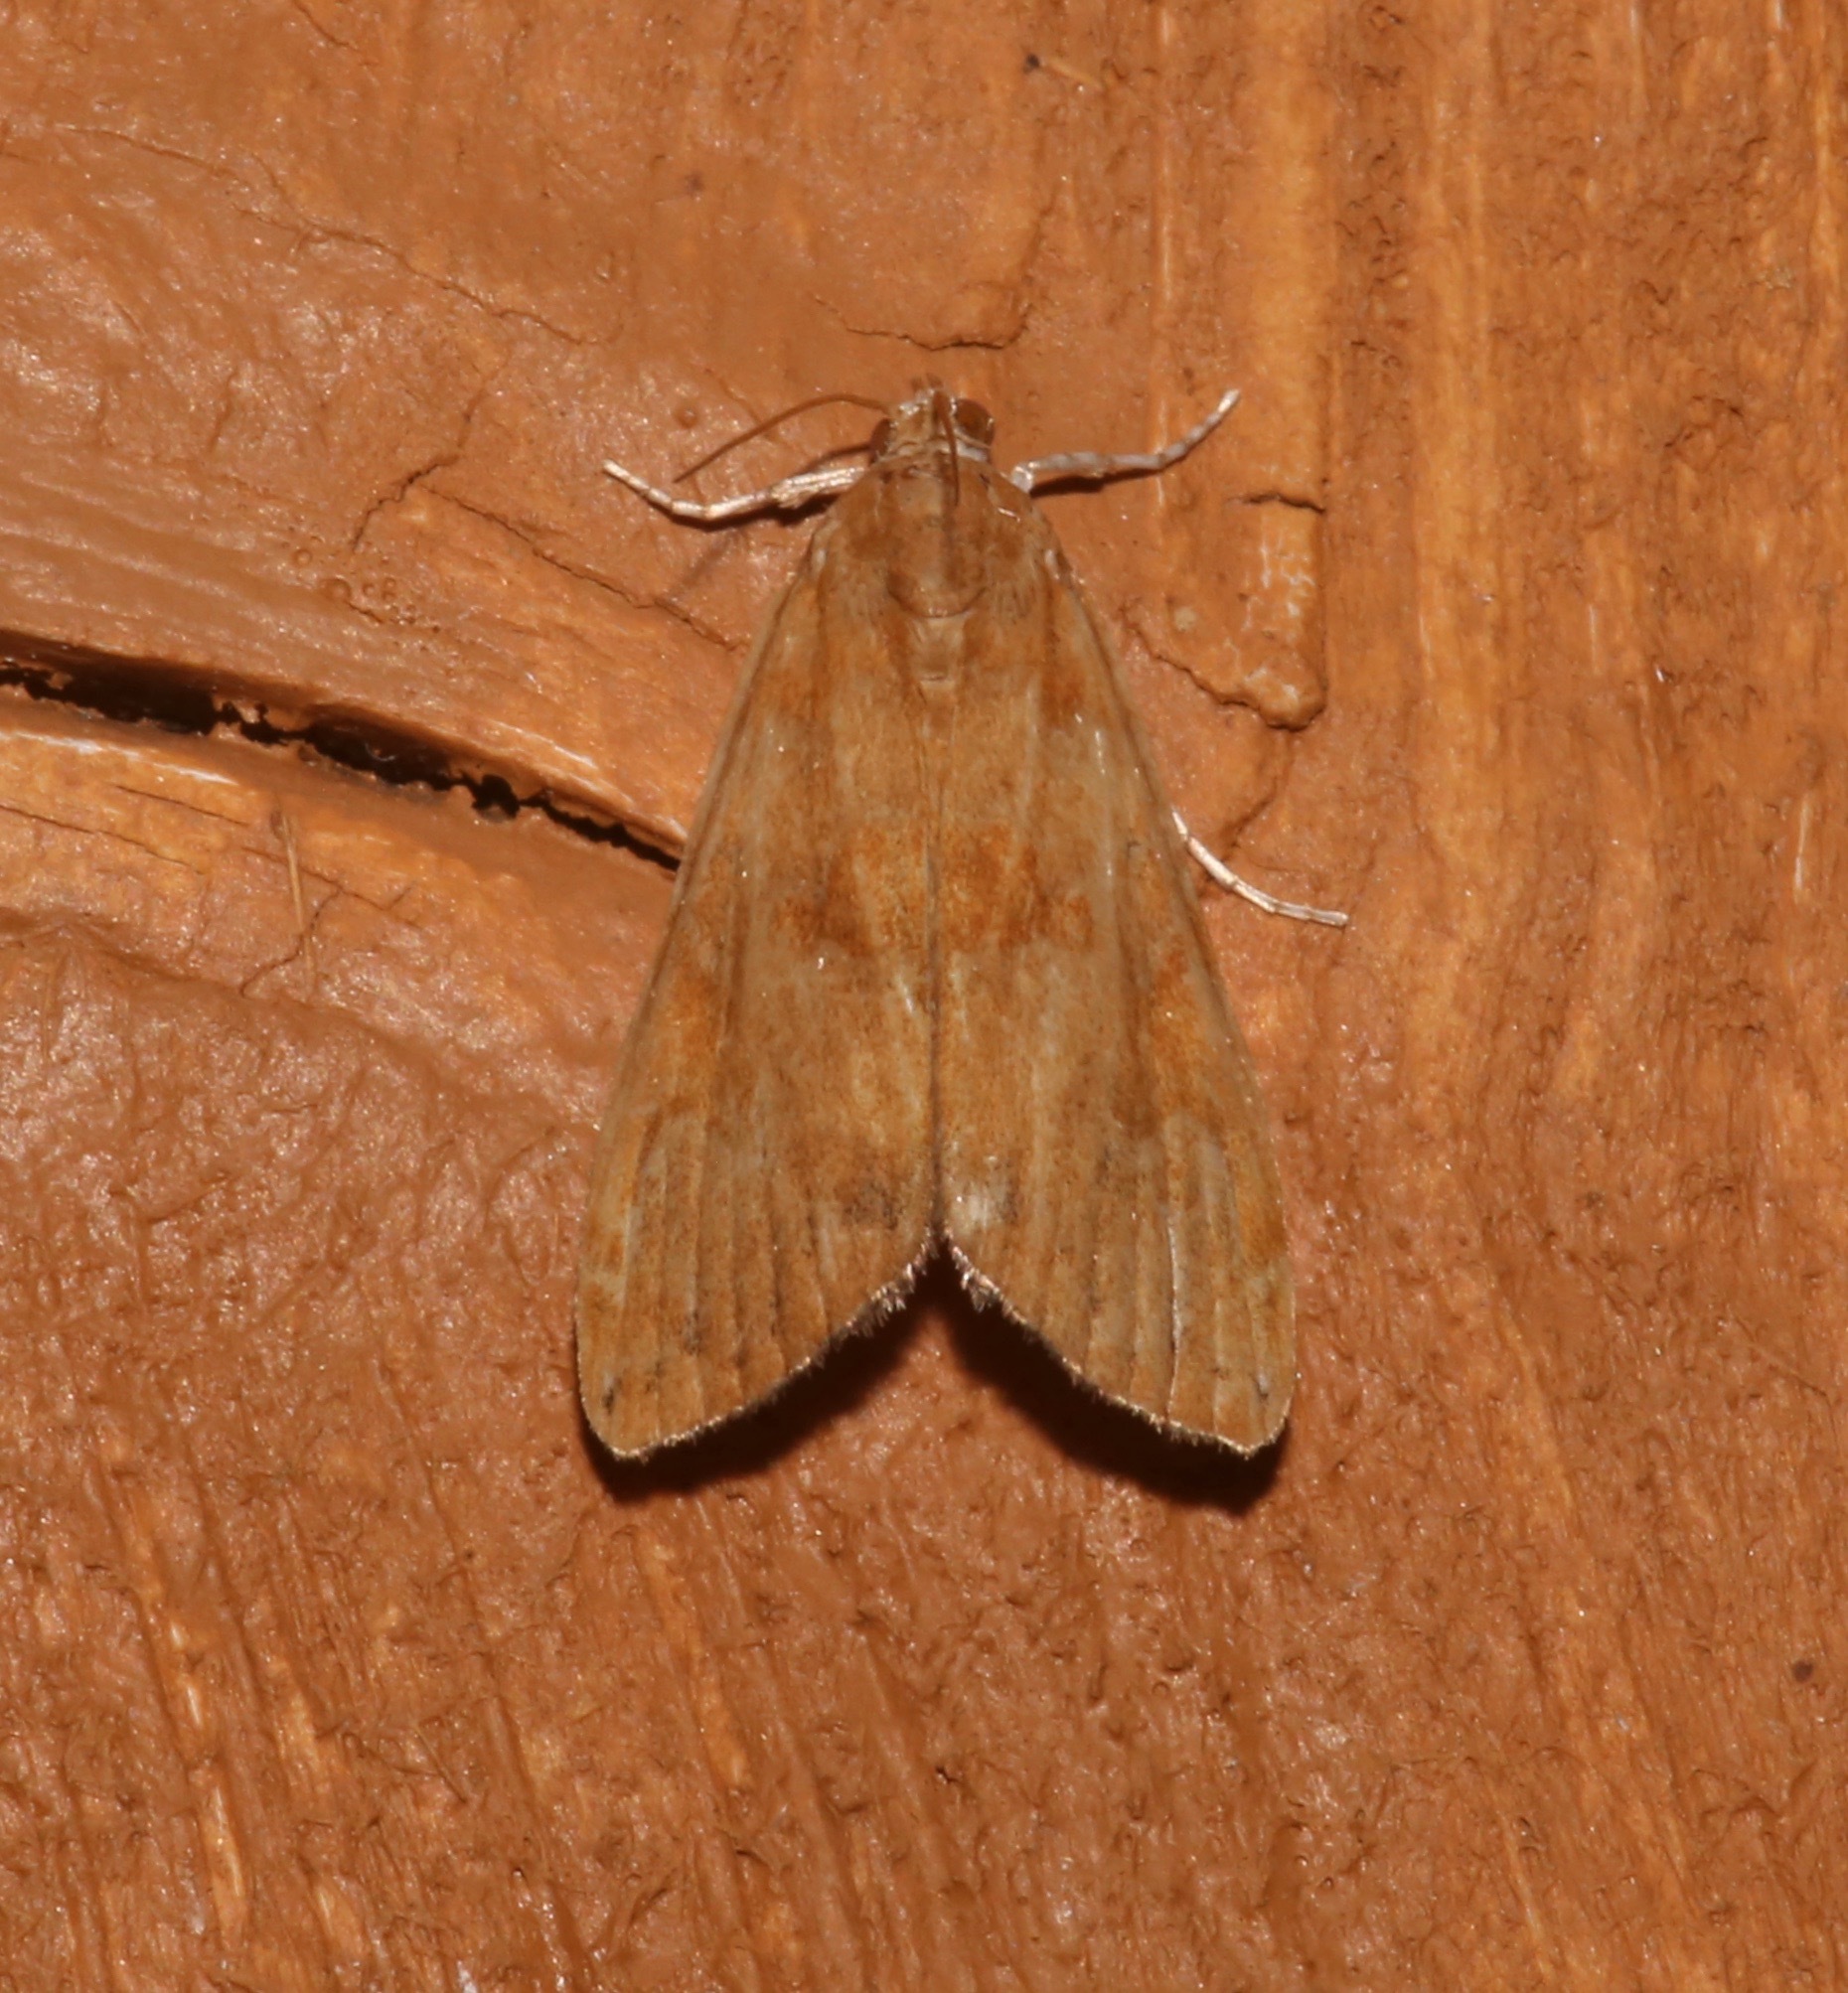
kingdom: Animalia
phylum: Arthropoda
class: Insecta
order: Lepidoptera
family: Crambidae
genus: Elophila
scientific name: Elophila gyralis
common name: Waterlily borer moth
